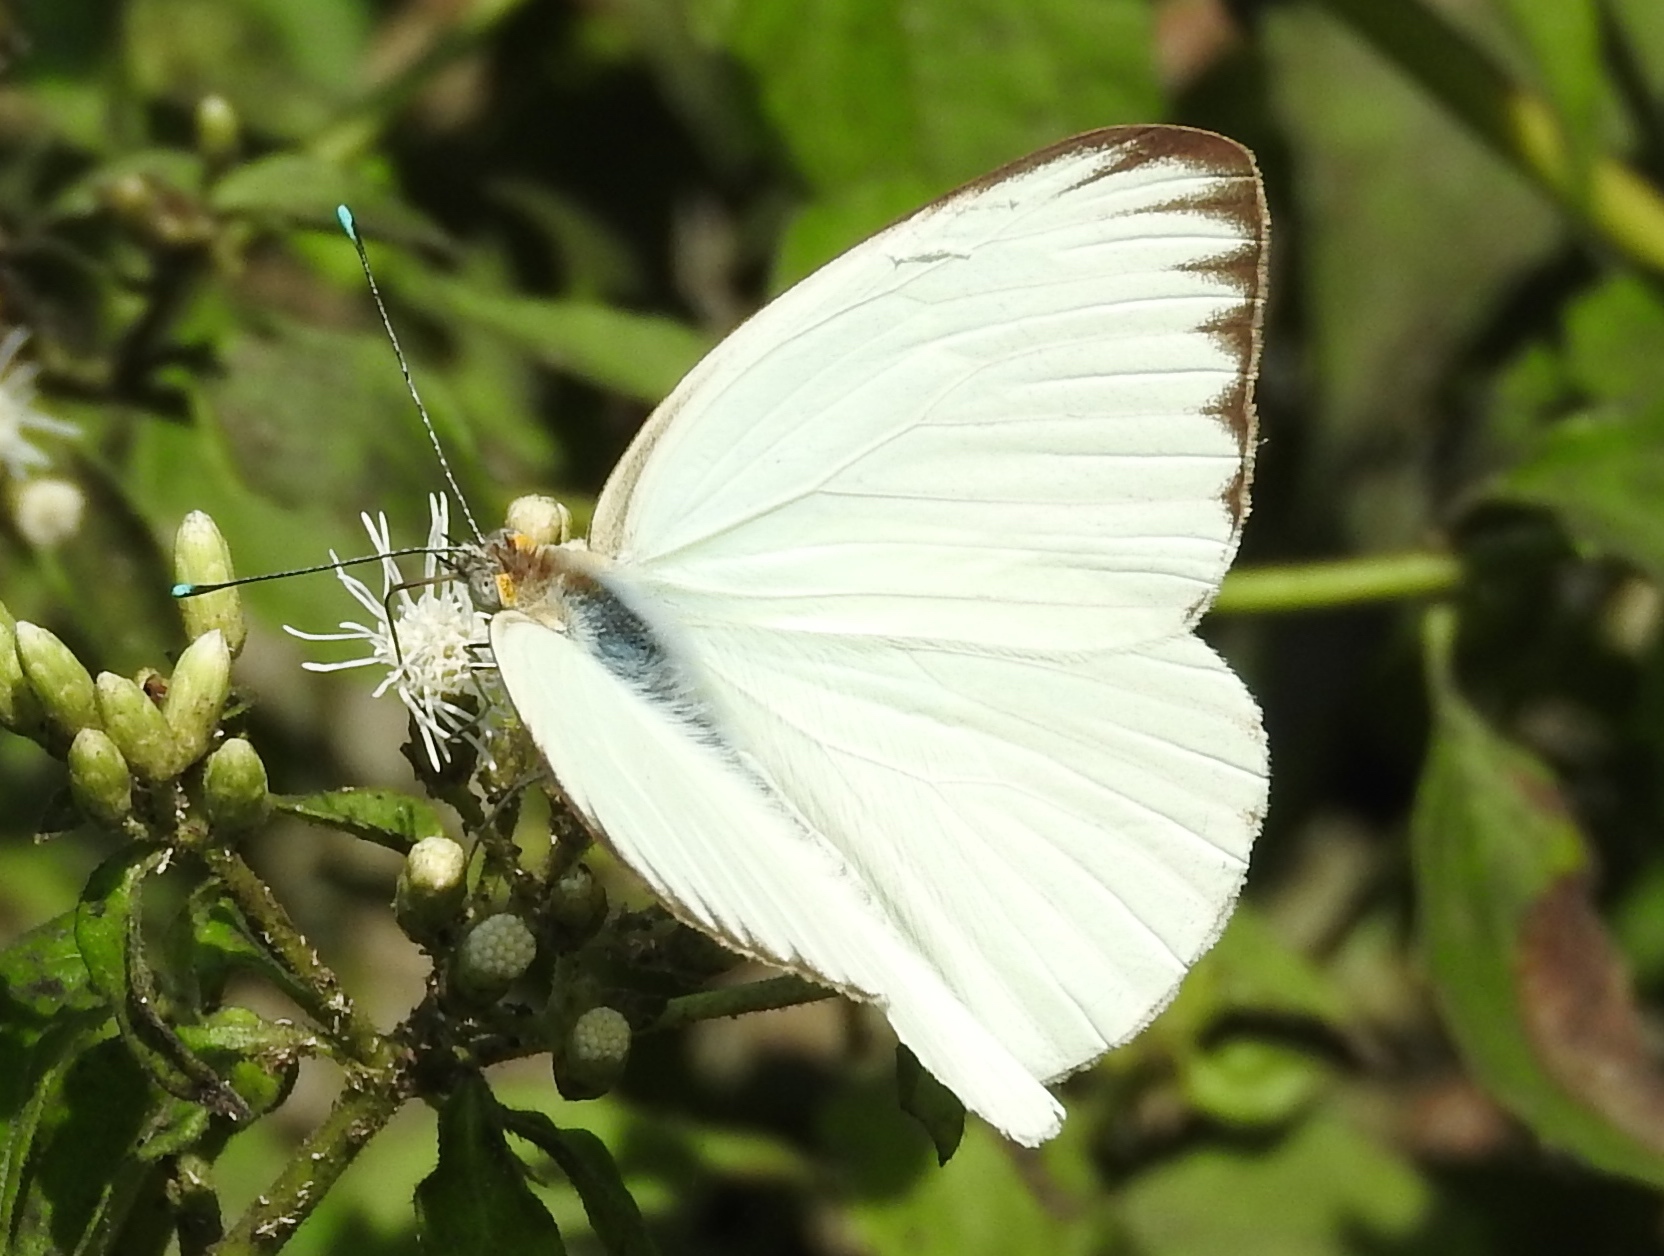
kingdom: Animalia
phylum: Arthropoda
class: Insecta
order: Lepidoptera
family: Pieridae
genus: Ascia
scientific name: Ascia monuste
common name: Great southern white
